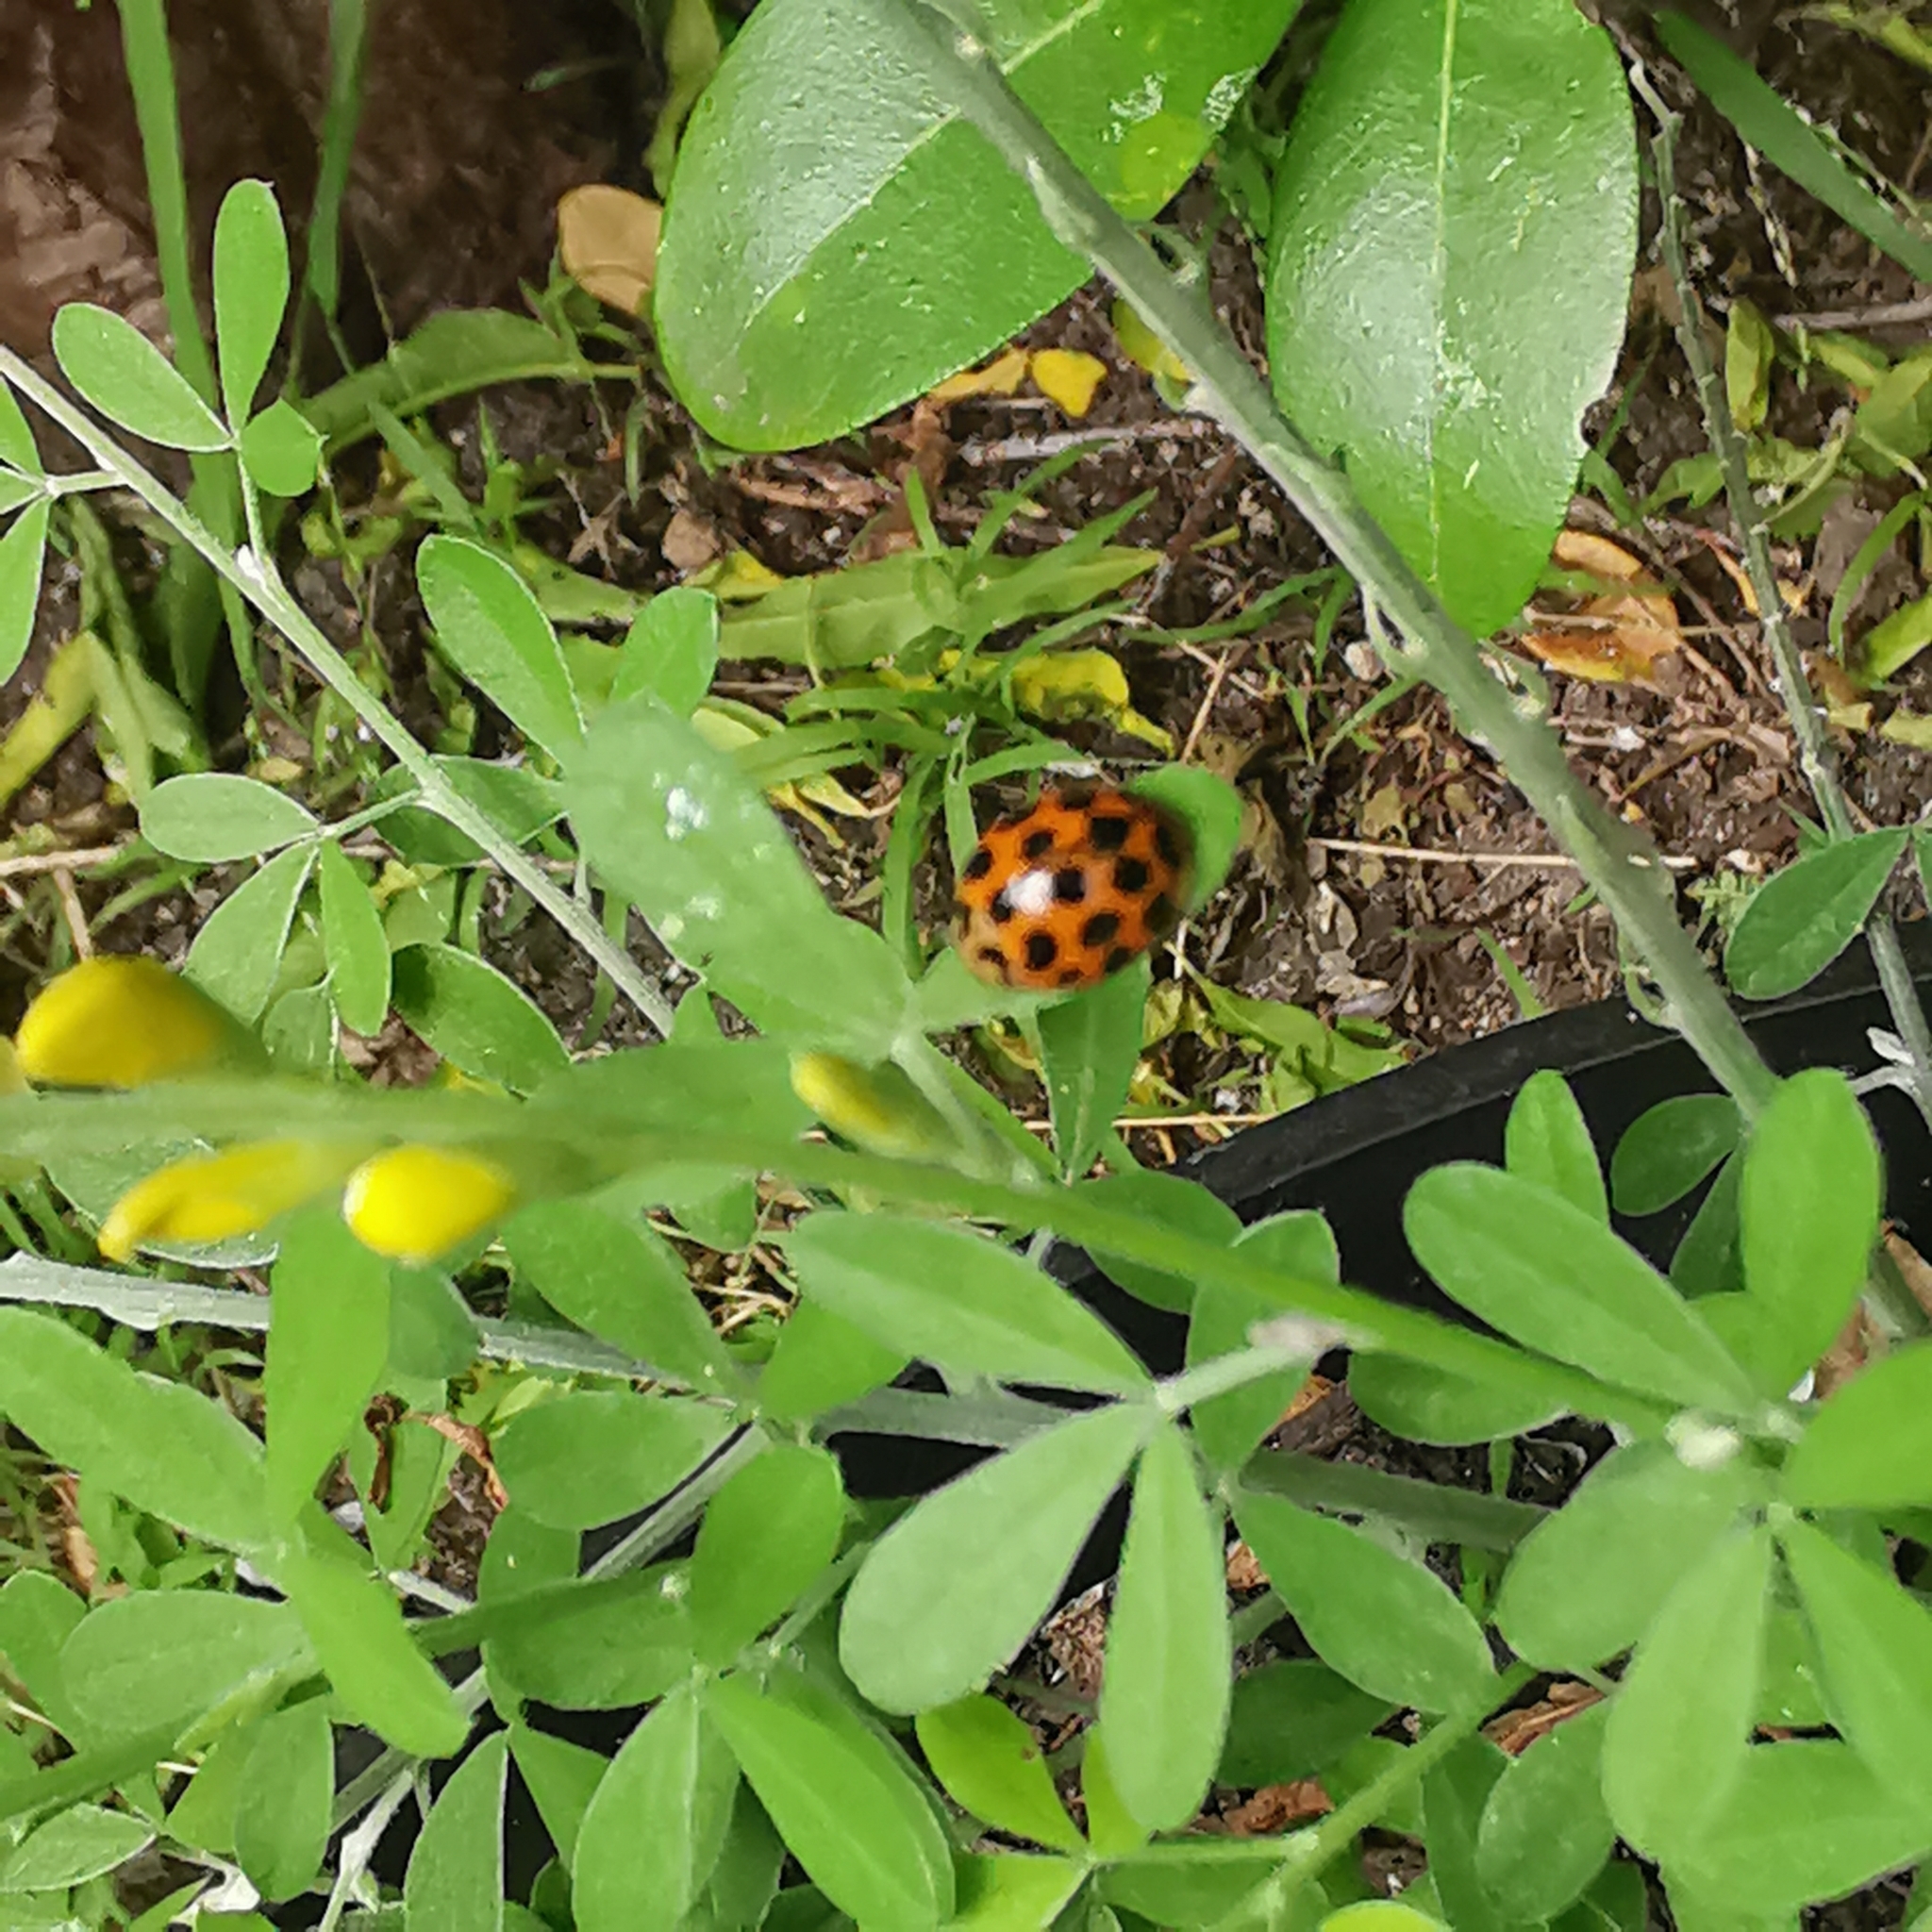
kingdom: Animalia
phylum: Arthropoda
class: Insecta
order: Coleoptera
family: Coccinellidae
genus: Harmonia
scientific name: Harmonia conformis
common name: Common spotted ladybird beetle
